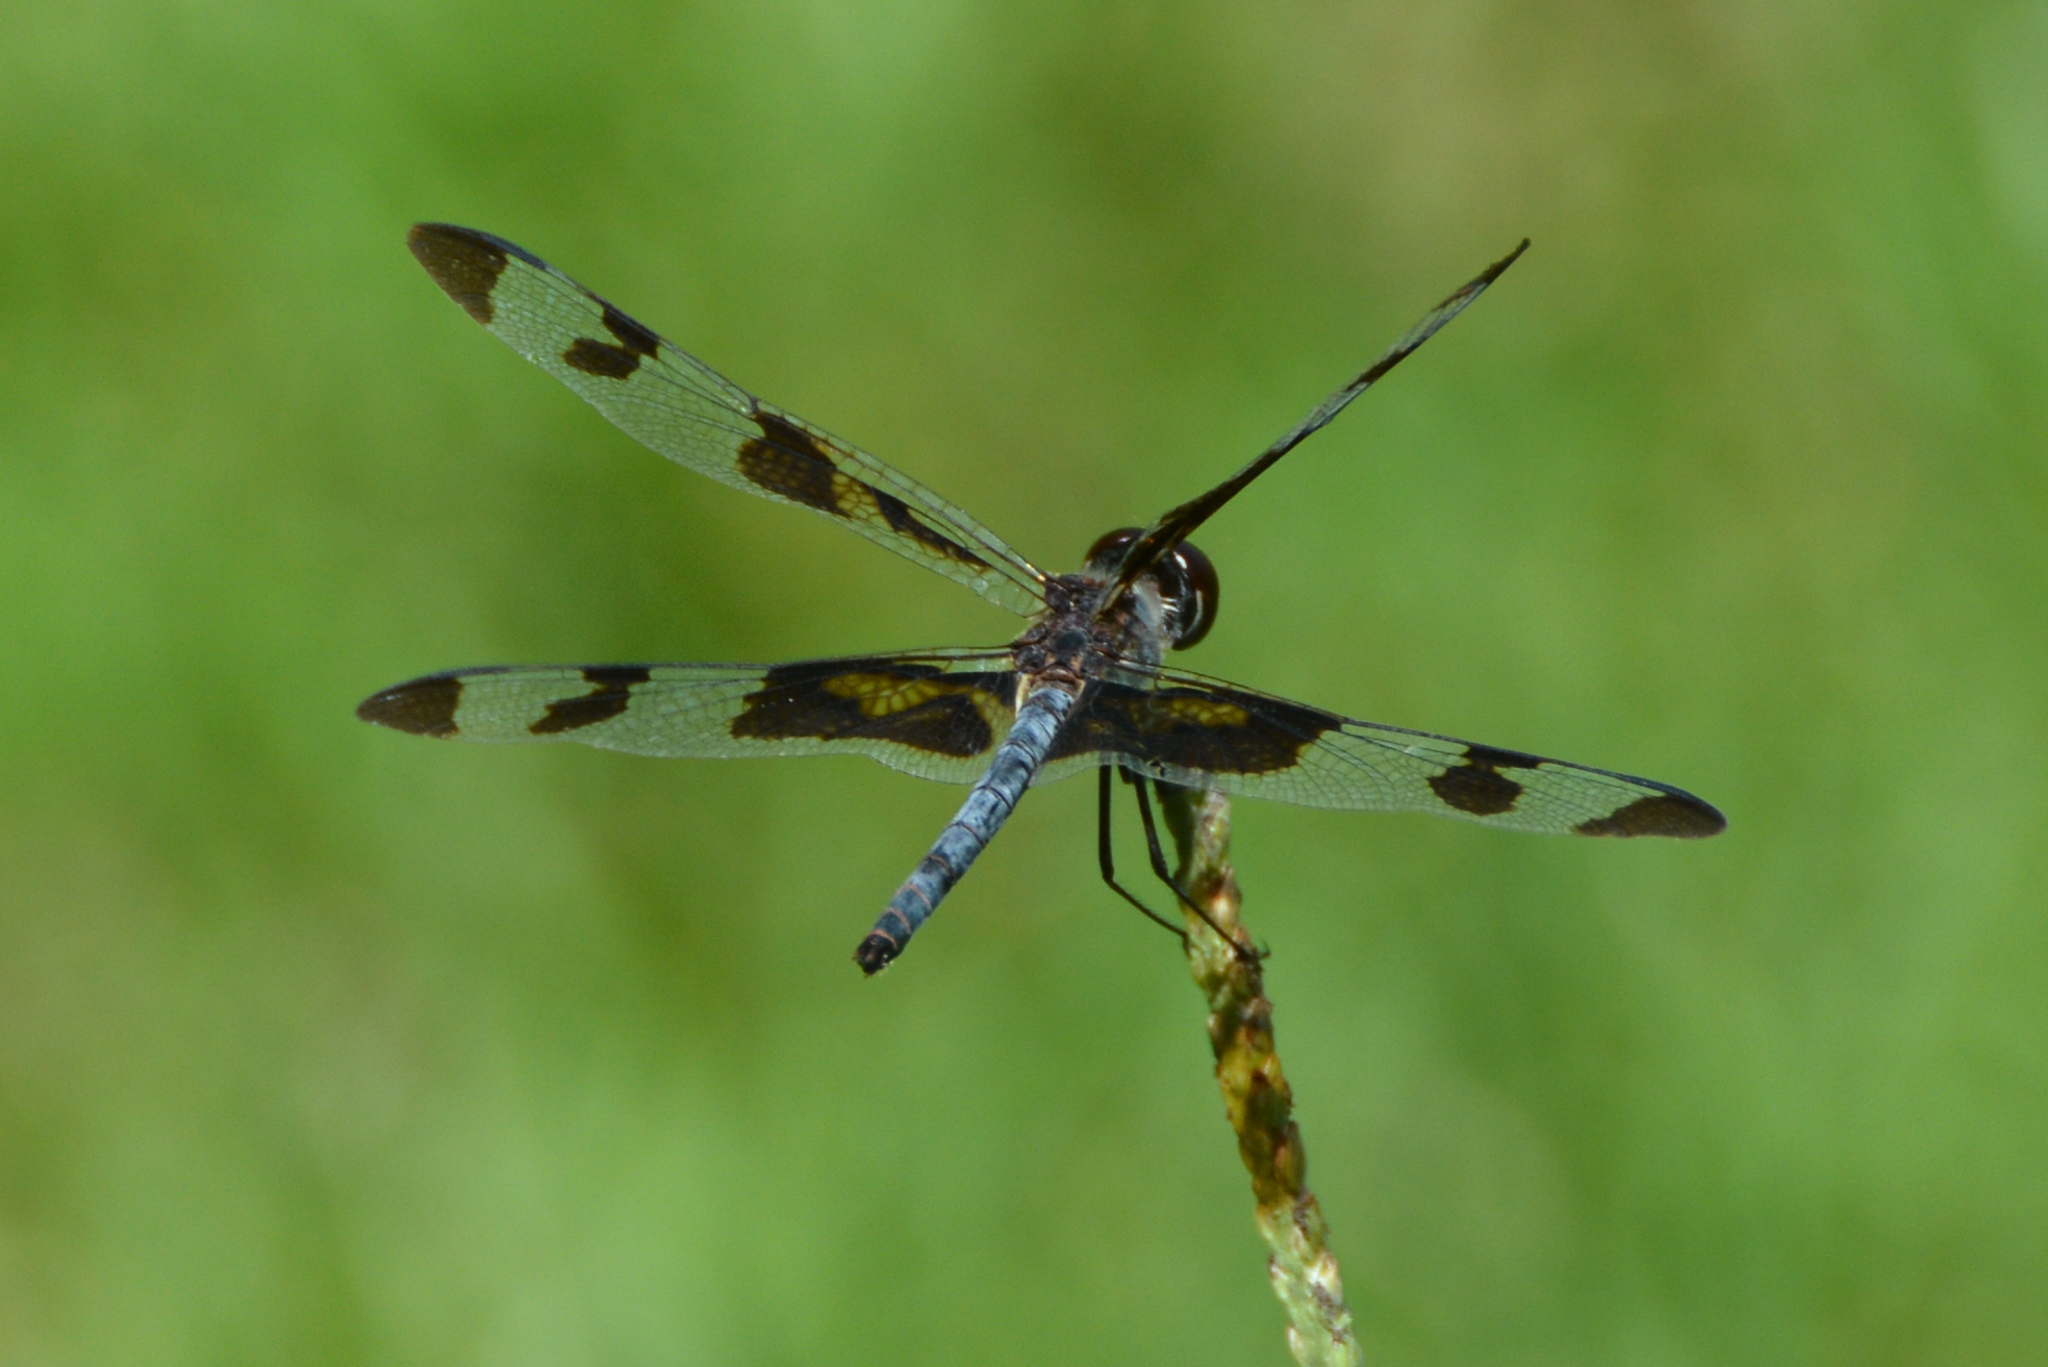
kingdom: Animalia
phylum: Arthropoda
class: Insecta
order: Odonata
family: Libellulidae
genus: Celithemis
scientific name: Celithemis fasciata
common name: Banded pennant
